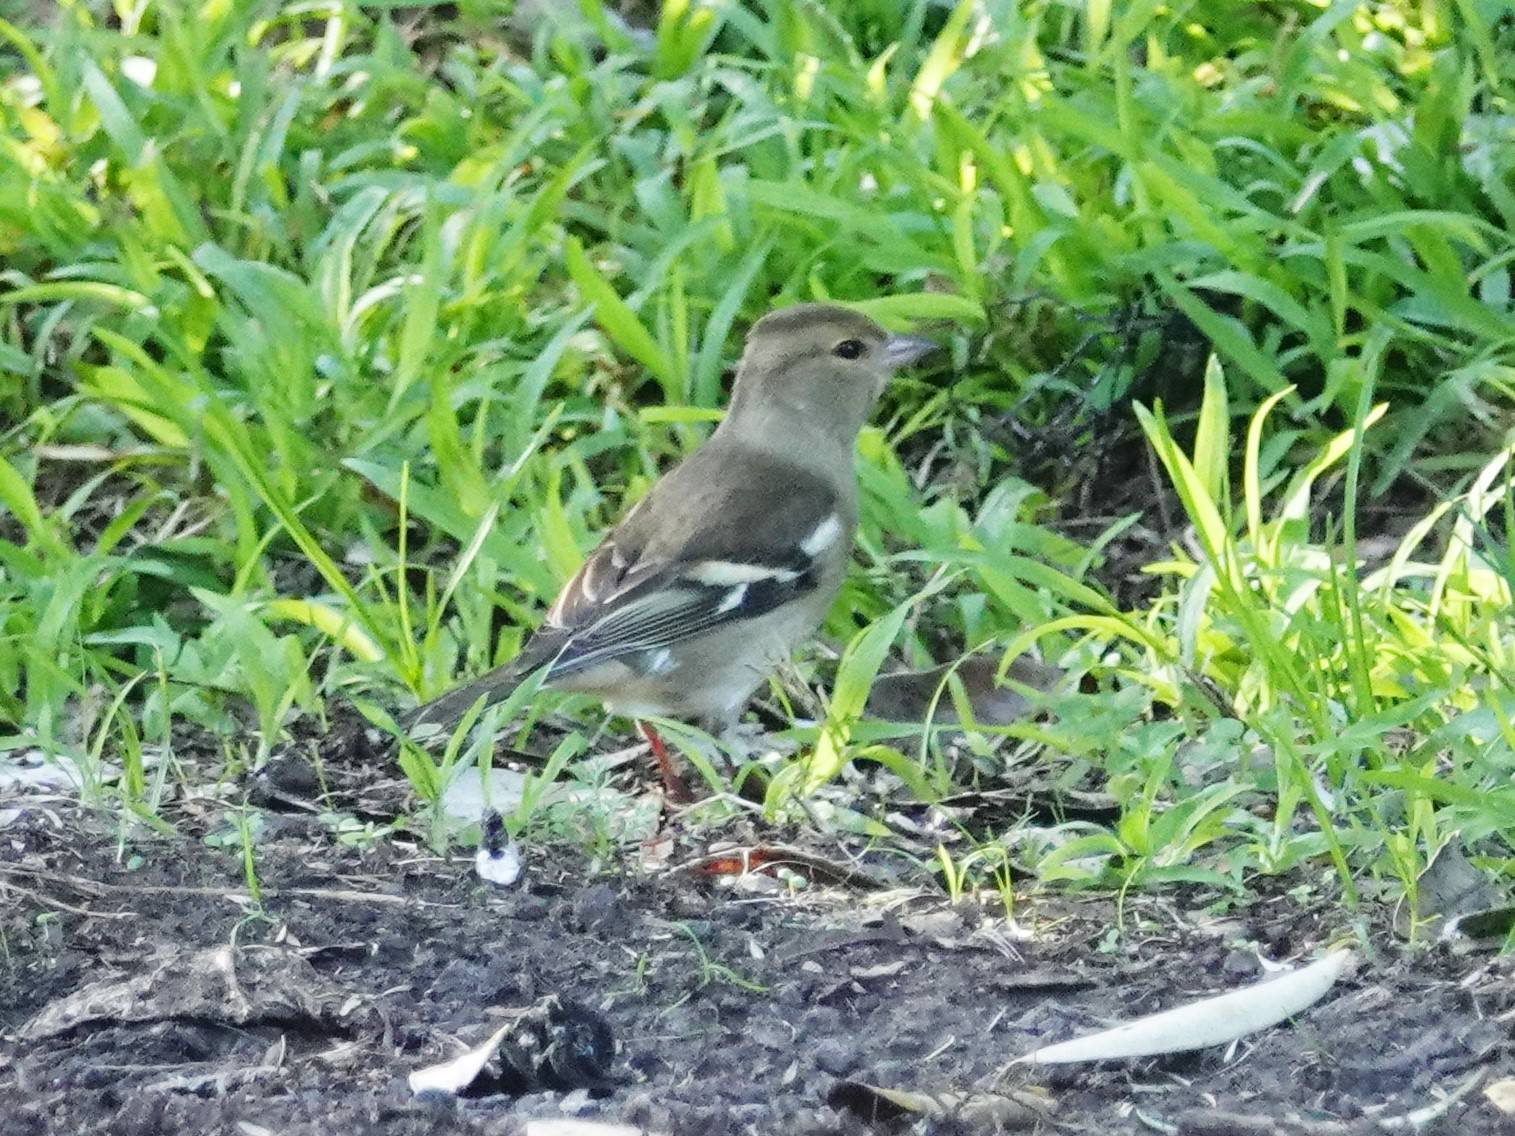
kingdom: Animalia
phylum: Chordata
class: Aves
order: Passeriformes
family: Fringillidae
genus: Fringilla
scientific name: Fringilla coelebs
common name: Common chaffinch
